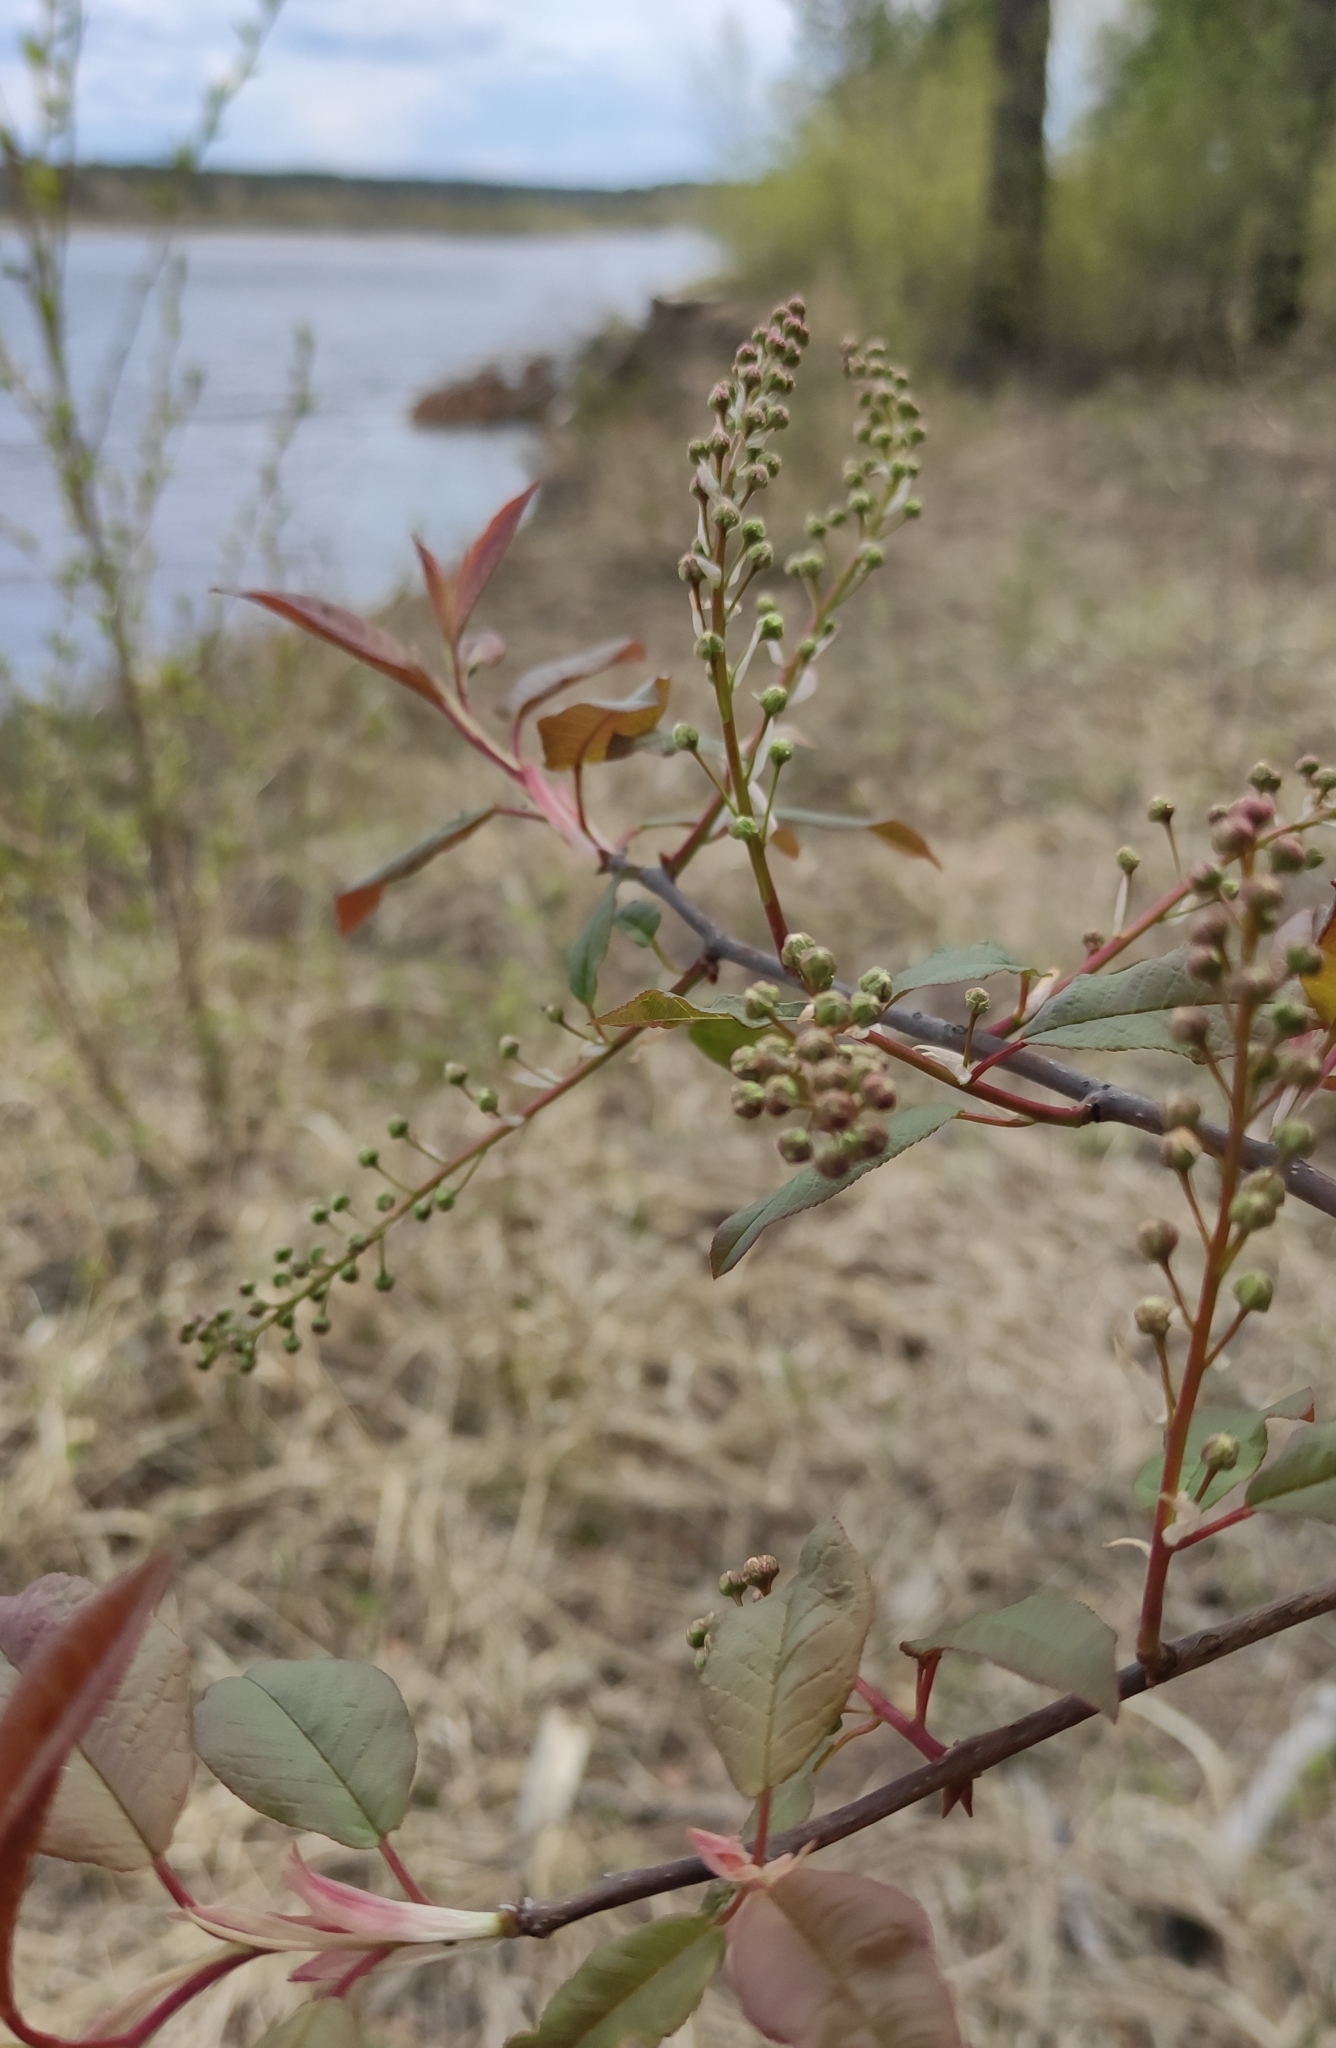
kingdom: Plantae
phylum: Tracheophyta
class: Magnoliopsida
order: Rosales
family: Rosaceae
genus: Prunus
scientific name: Prunus padus
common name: Bird cherry
